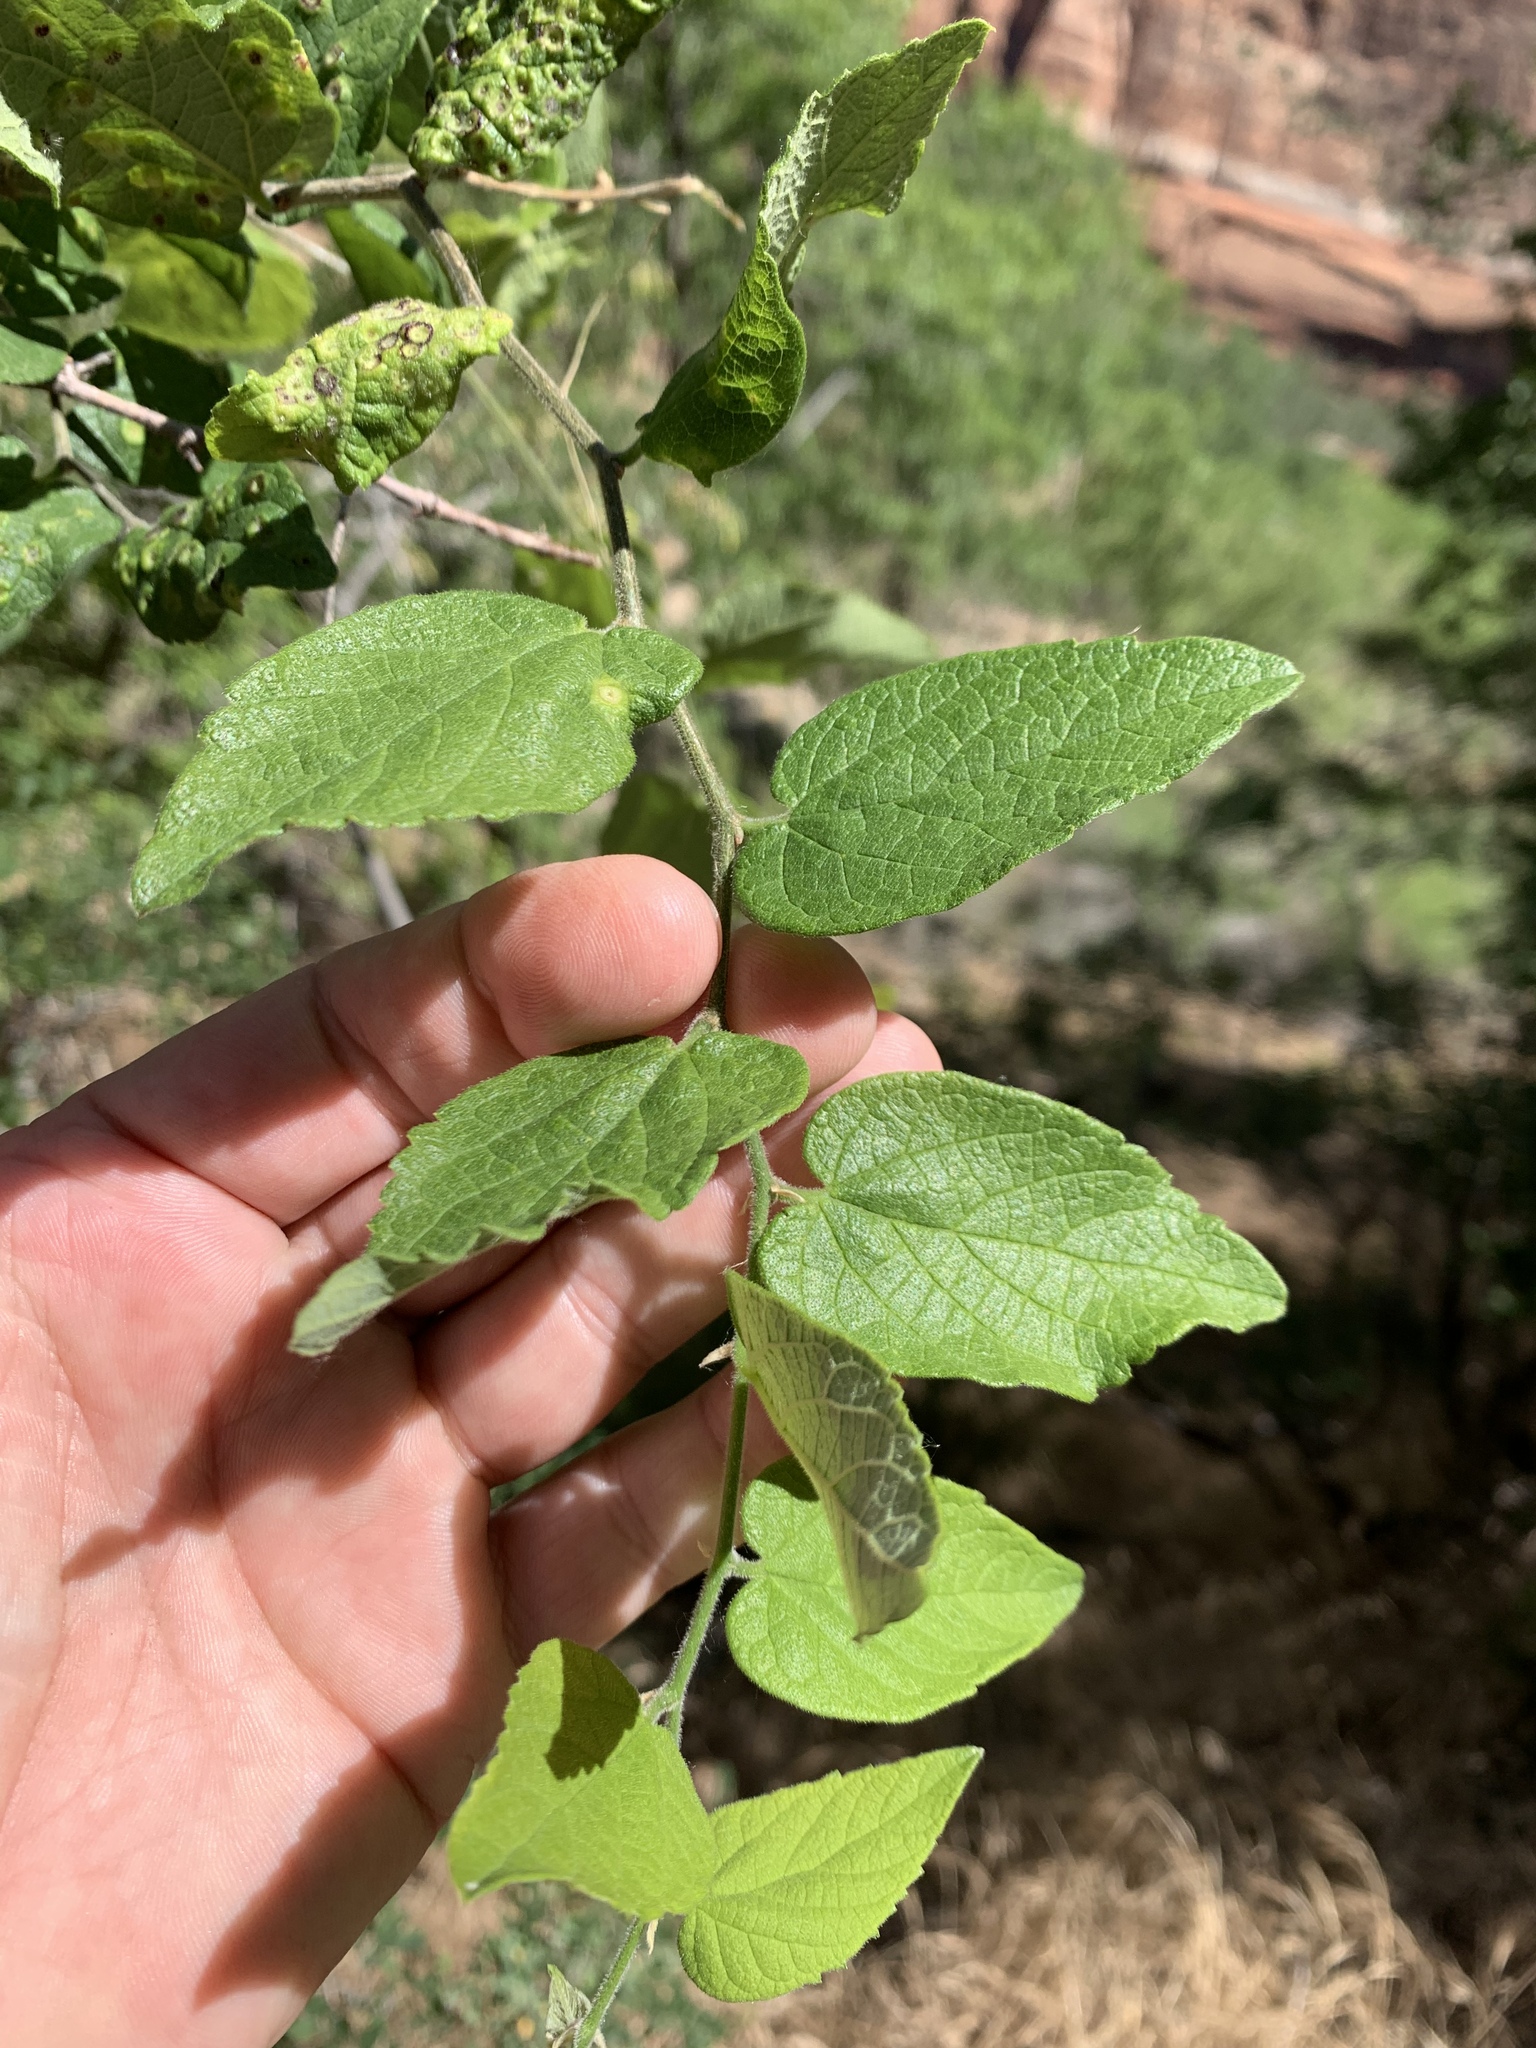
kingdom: Plantae
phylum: Tracheophyta
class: Magnoliopsida
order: Rosales
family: Cannabaceae
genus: Celtis
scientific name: Celtis reticulata
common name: Netleaf hackberry
